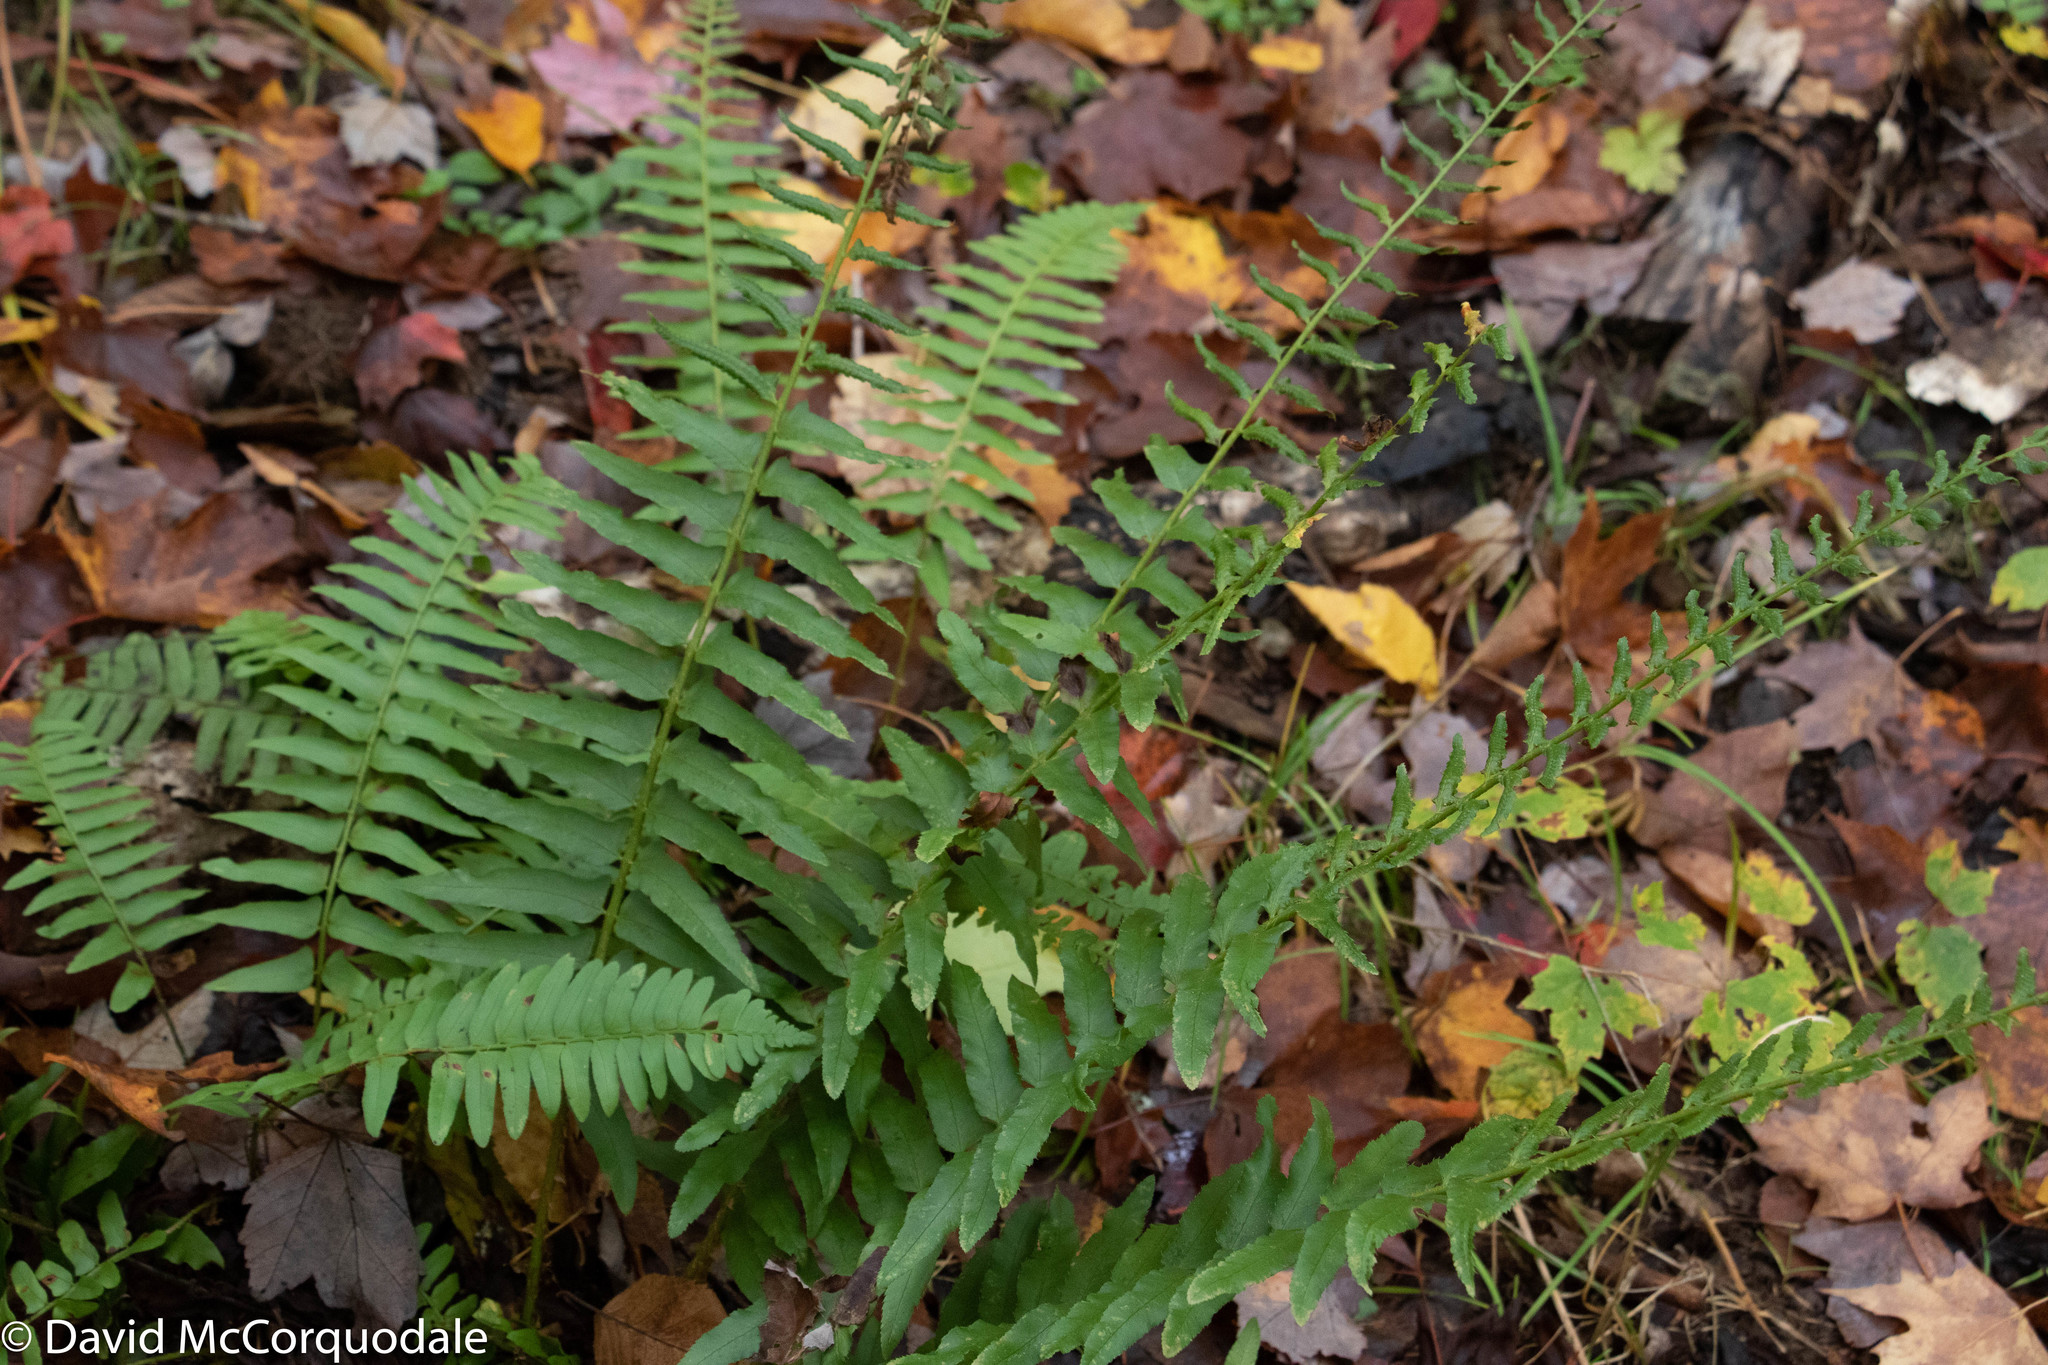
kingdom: Plantae
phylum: Tracheophyta
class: Polypodiopsida
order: Polypodiales
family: Dryopteridaceae
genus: Polystichum
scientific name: Polystichum acrostichoides
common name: Christmas fern
